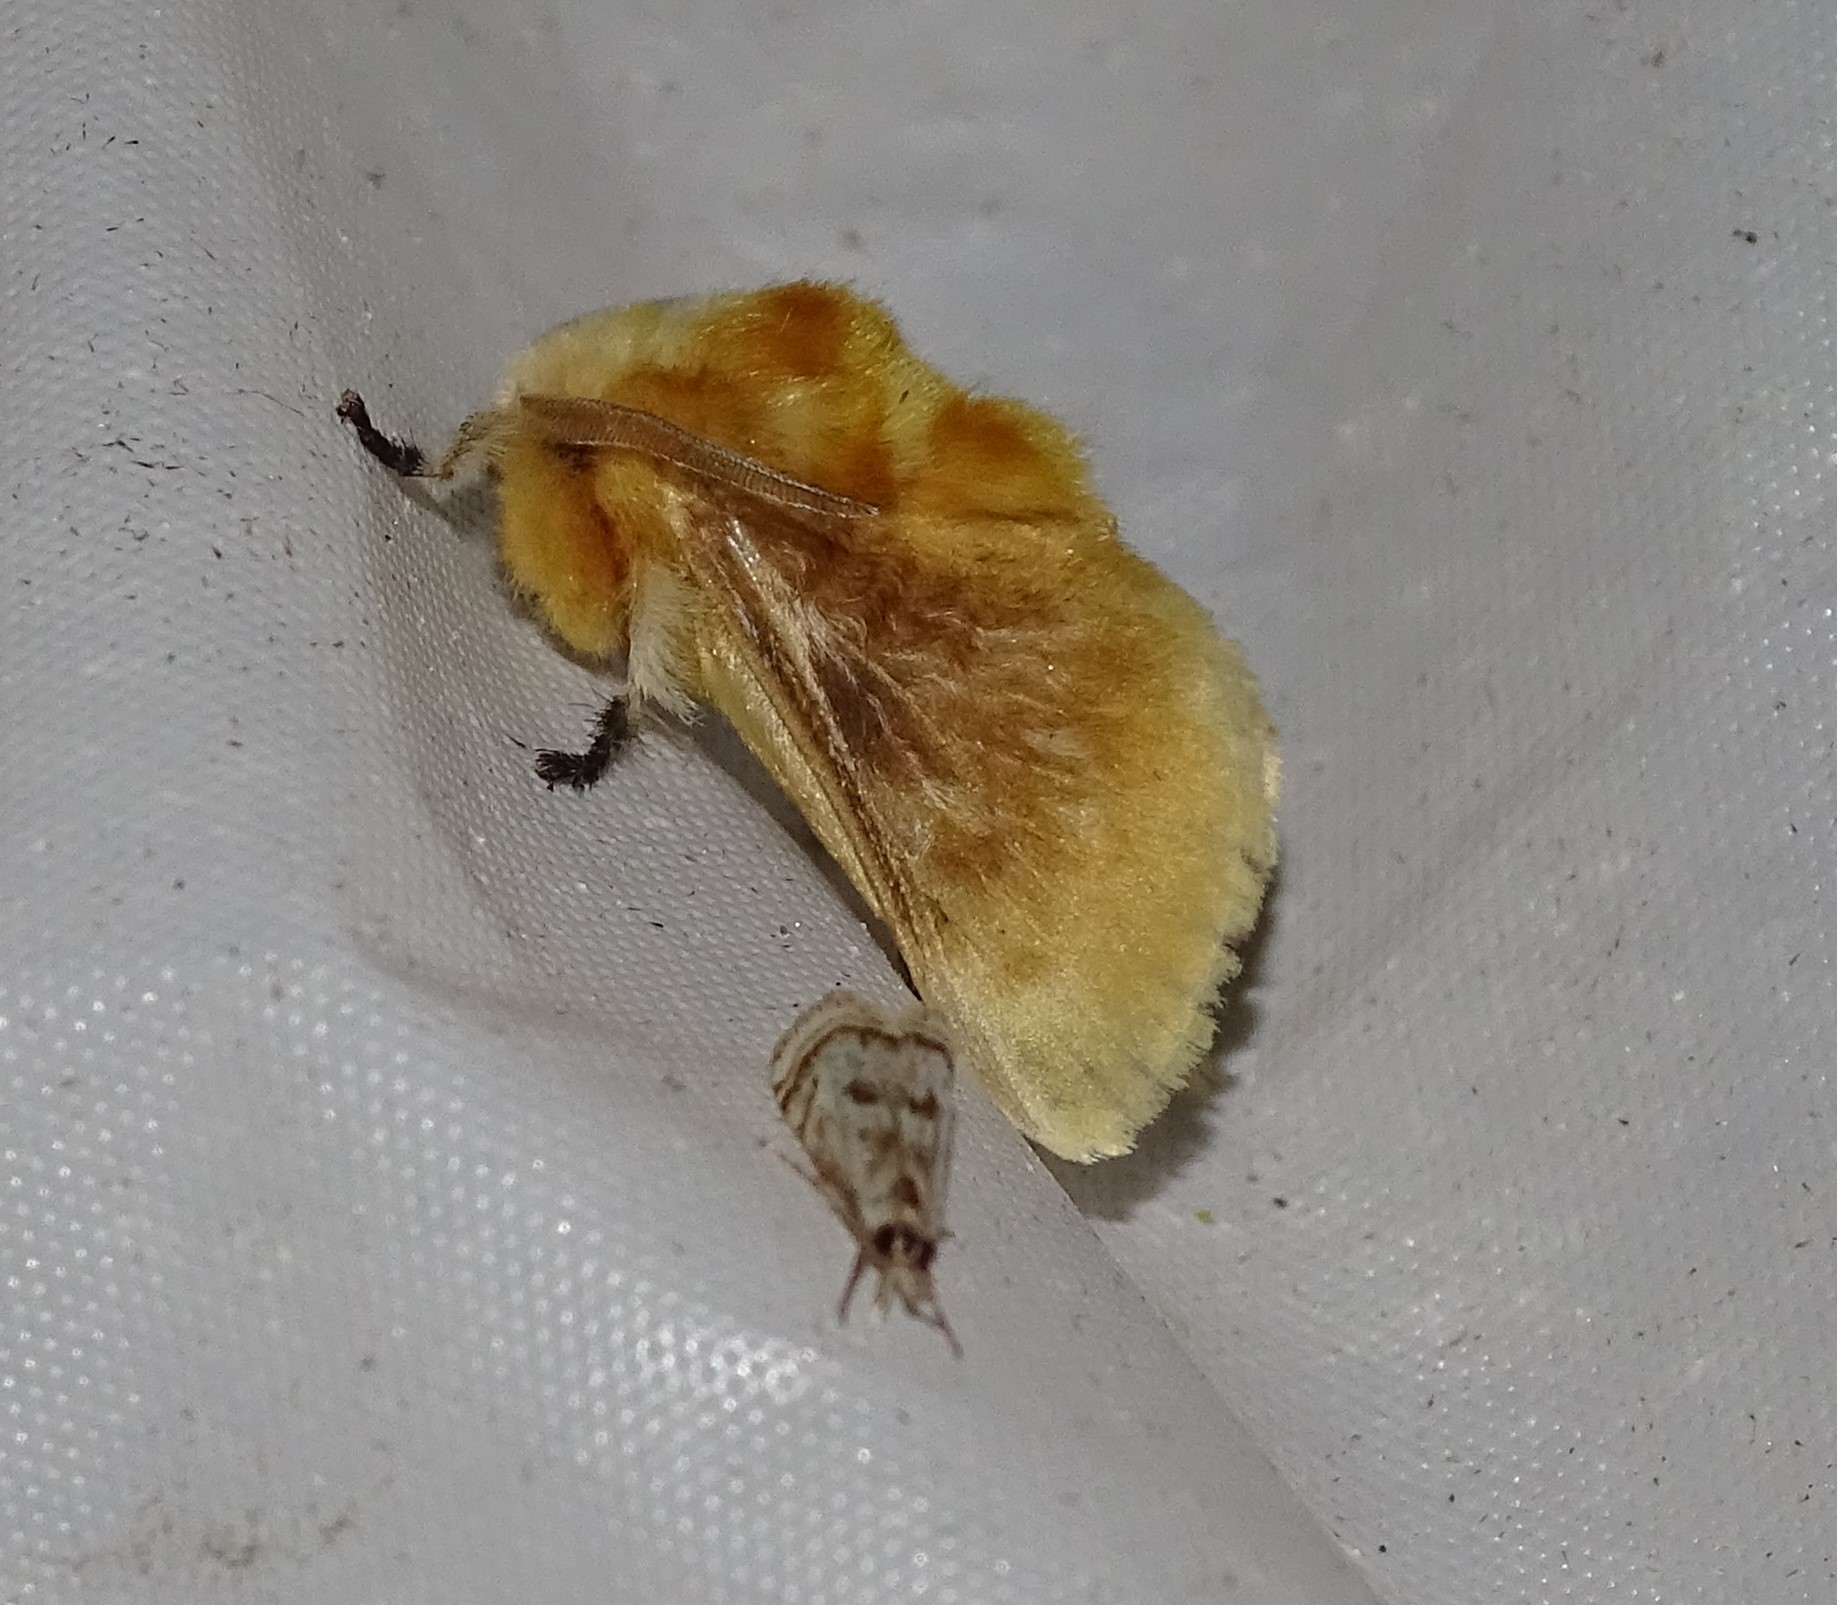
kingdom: Animalia
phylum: Arthropoda
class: Insecta
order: Lepidoptera
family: Megalopygidae
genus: Megalopyge
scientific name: Megalopyge opercularis
